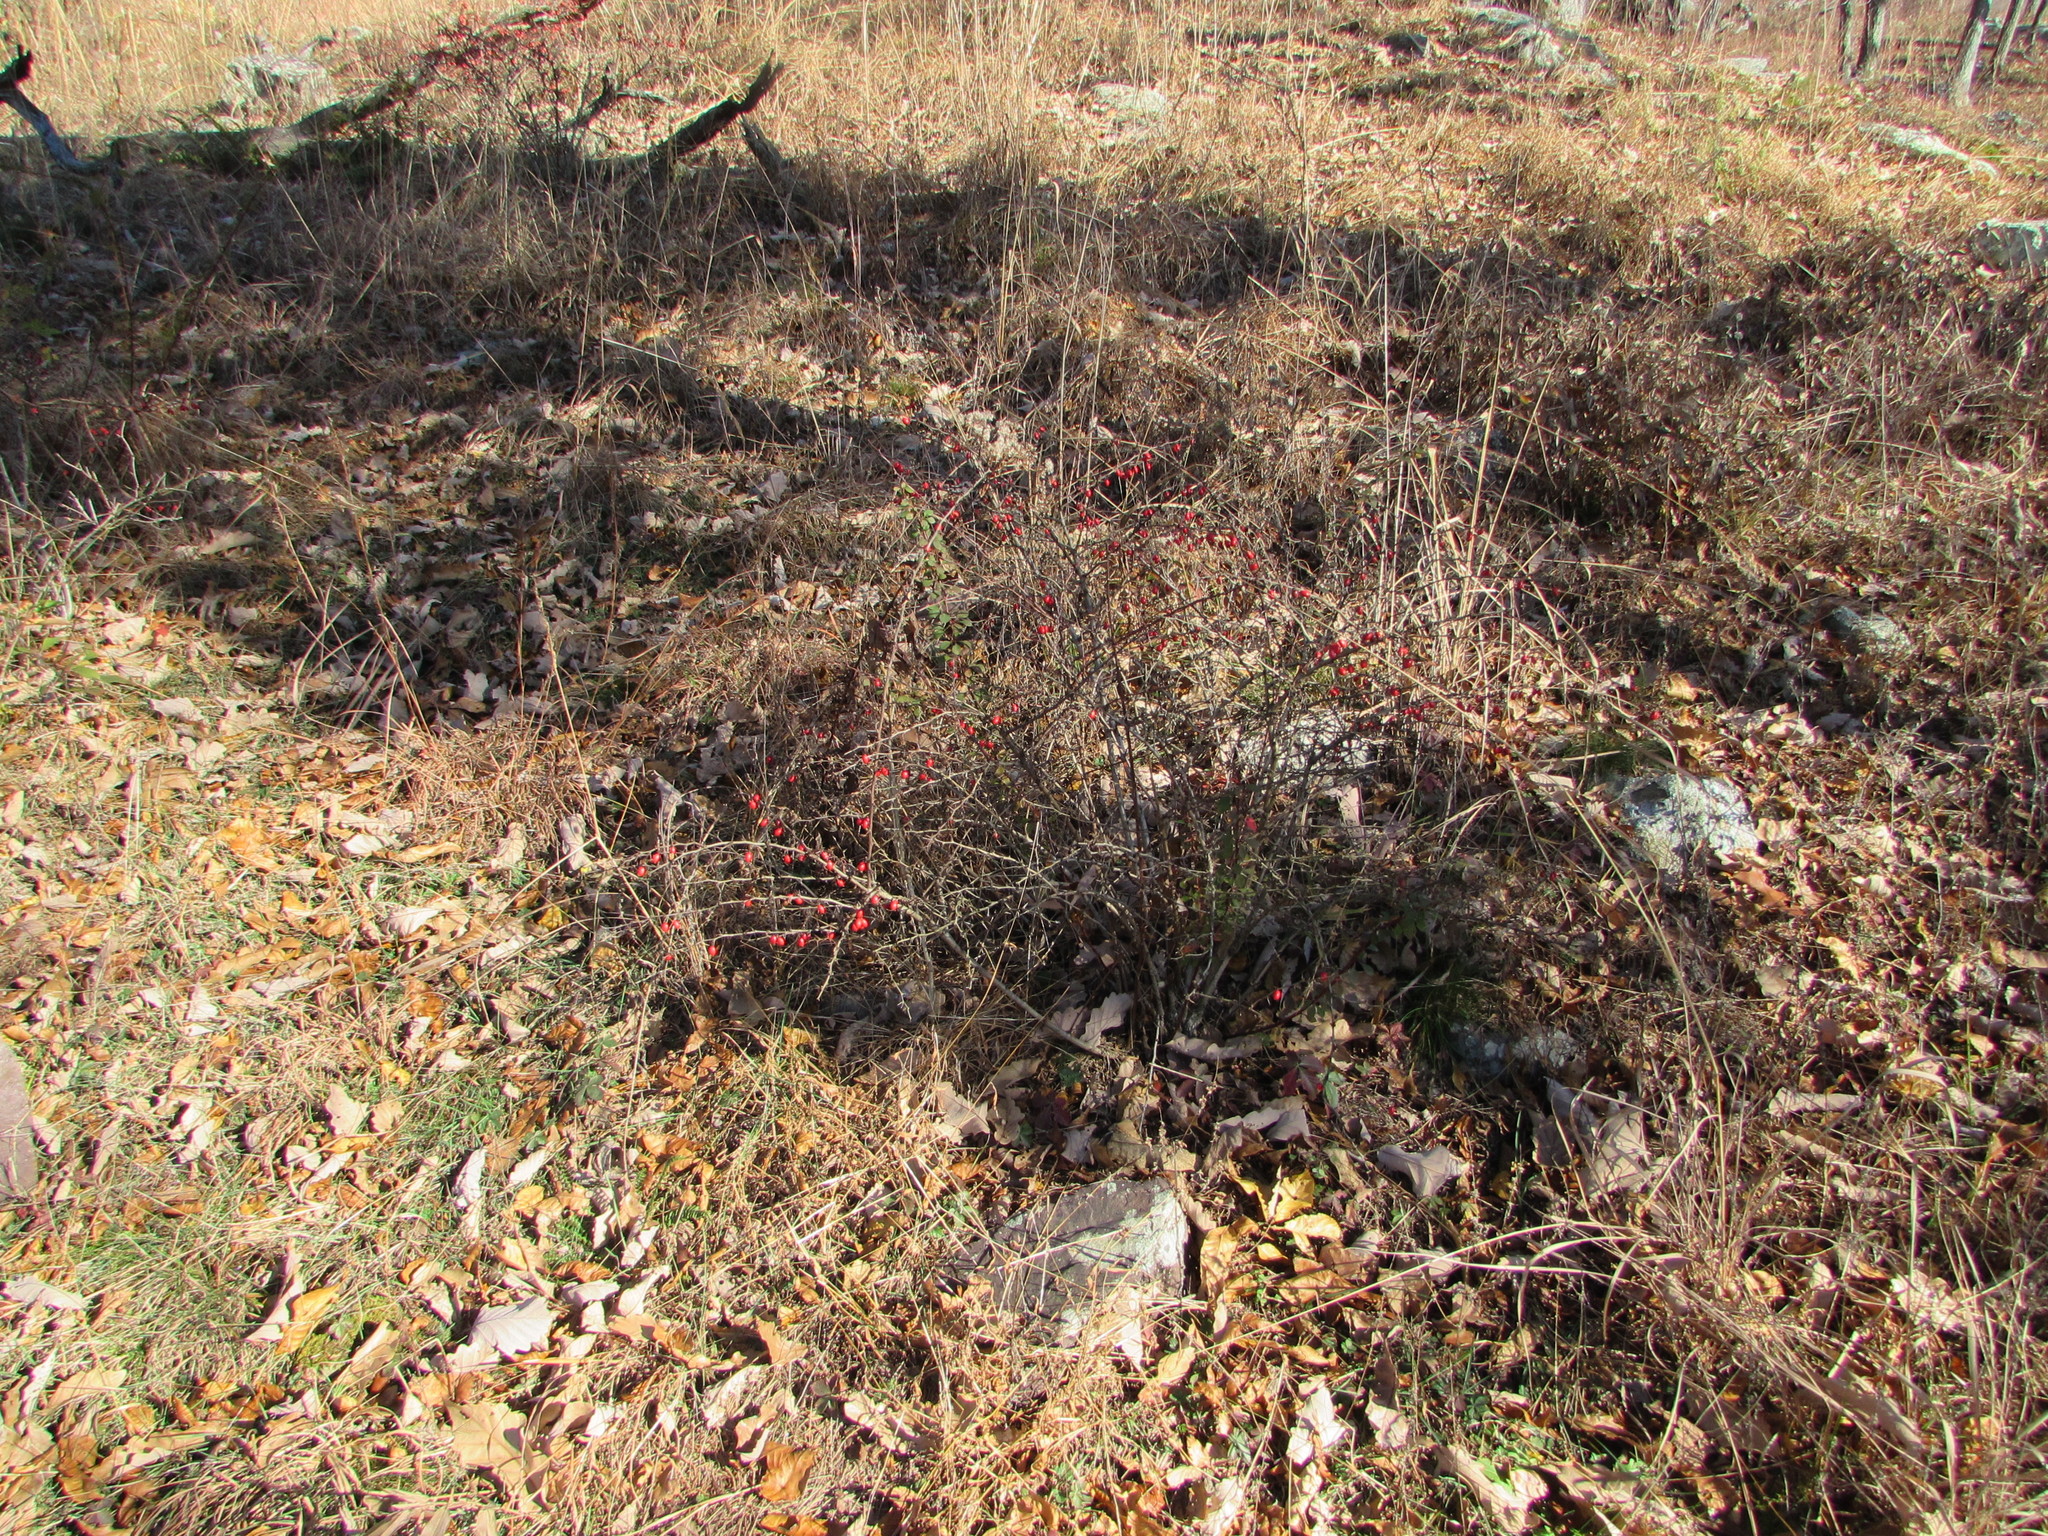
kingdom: Plantae
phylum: Tracheophyta
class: Magnoliopsida
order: Ranunculales
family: Berberidaceae
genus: Berberis
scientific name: Berberis thunbergii
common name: Japanese barberry
